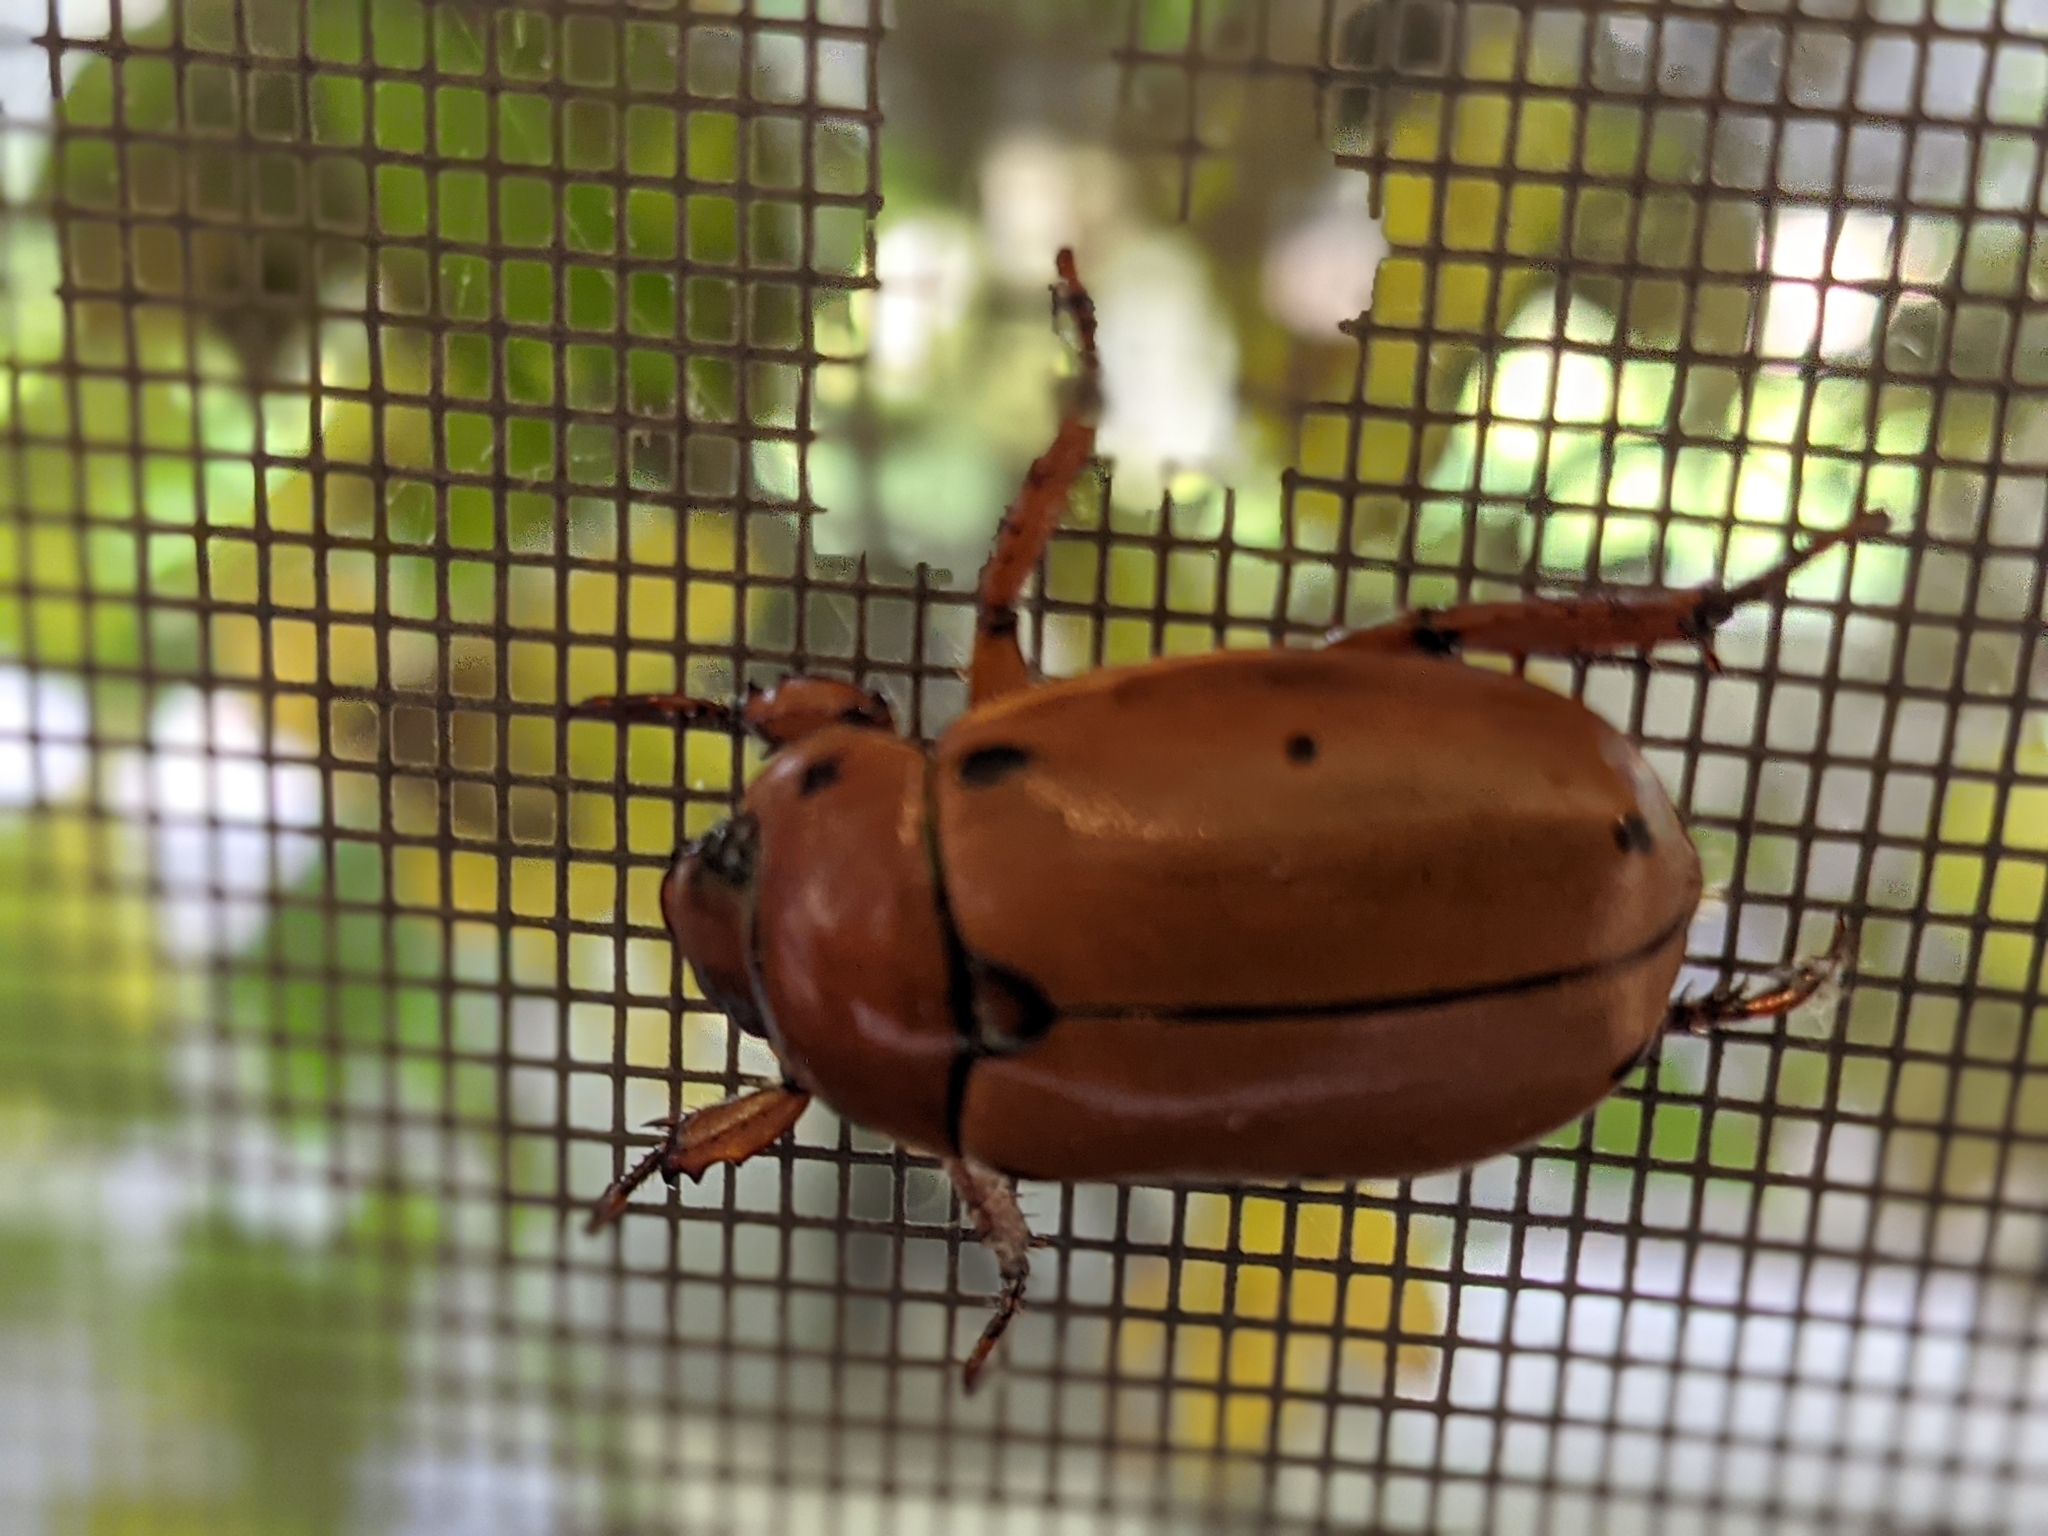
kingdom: Animalia
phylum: Arthropoda
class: Insecta
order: Coleoptera
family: Scarabaeidae
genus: Pelidnota
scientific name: Pelidnota punctata
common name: Grapevine beetle
